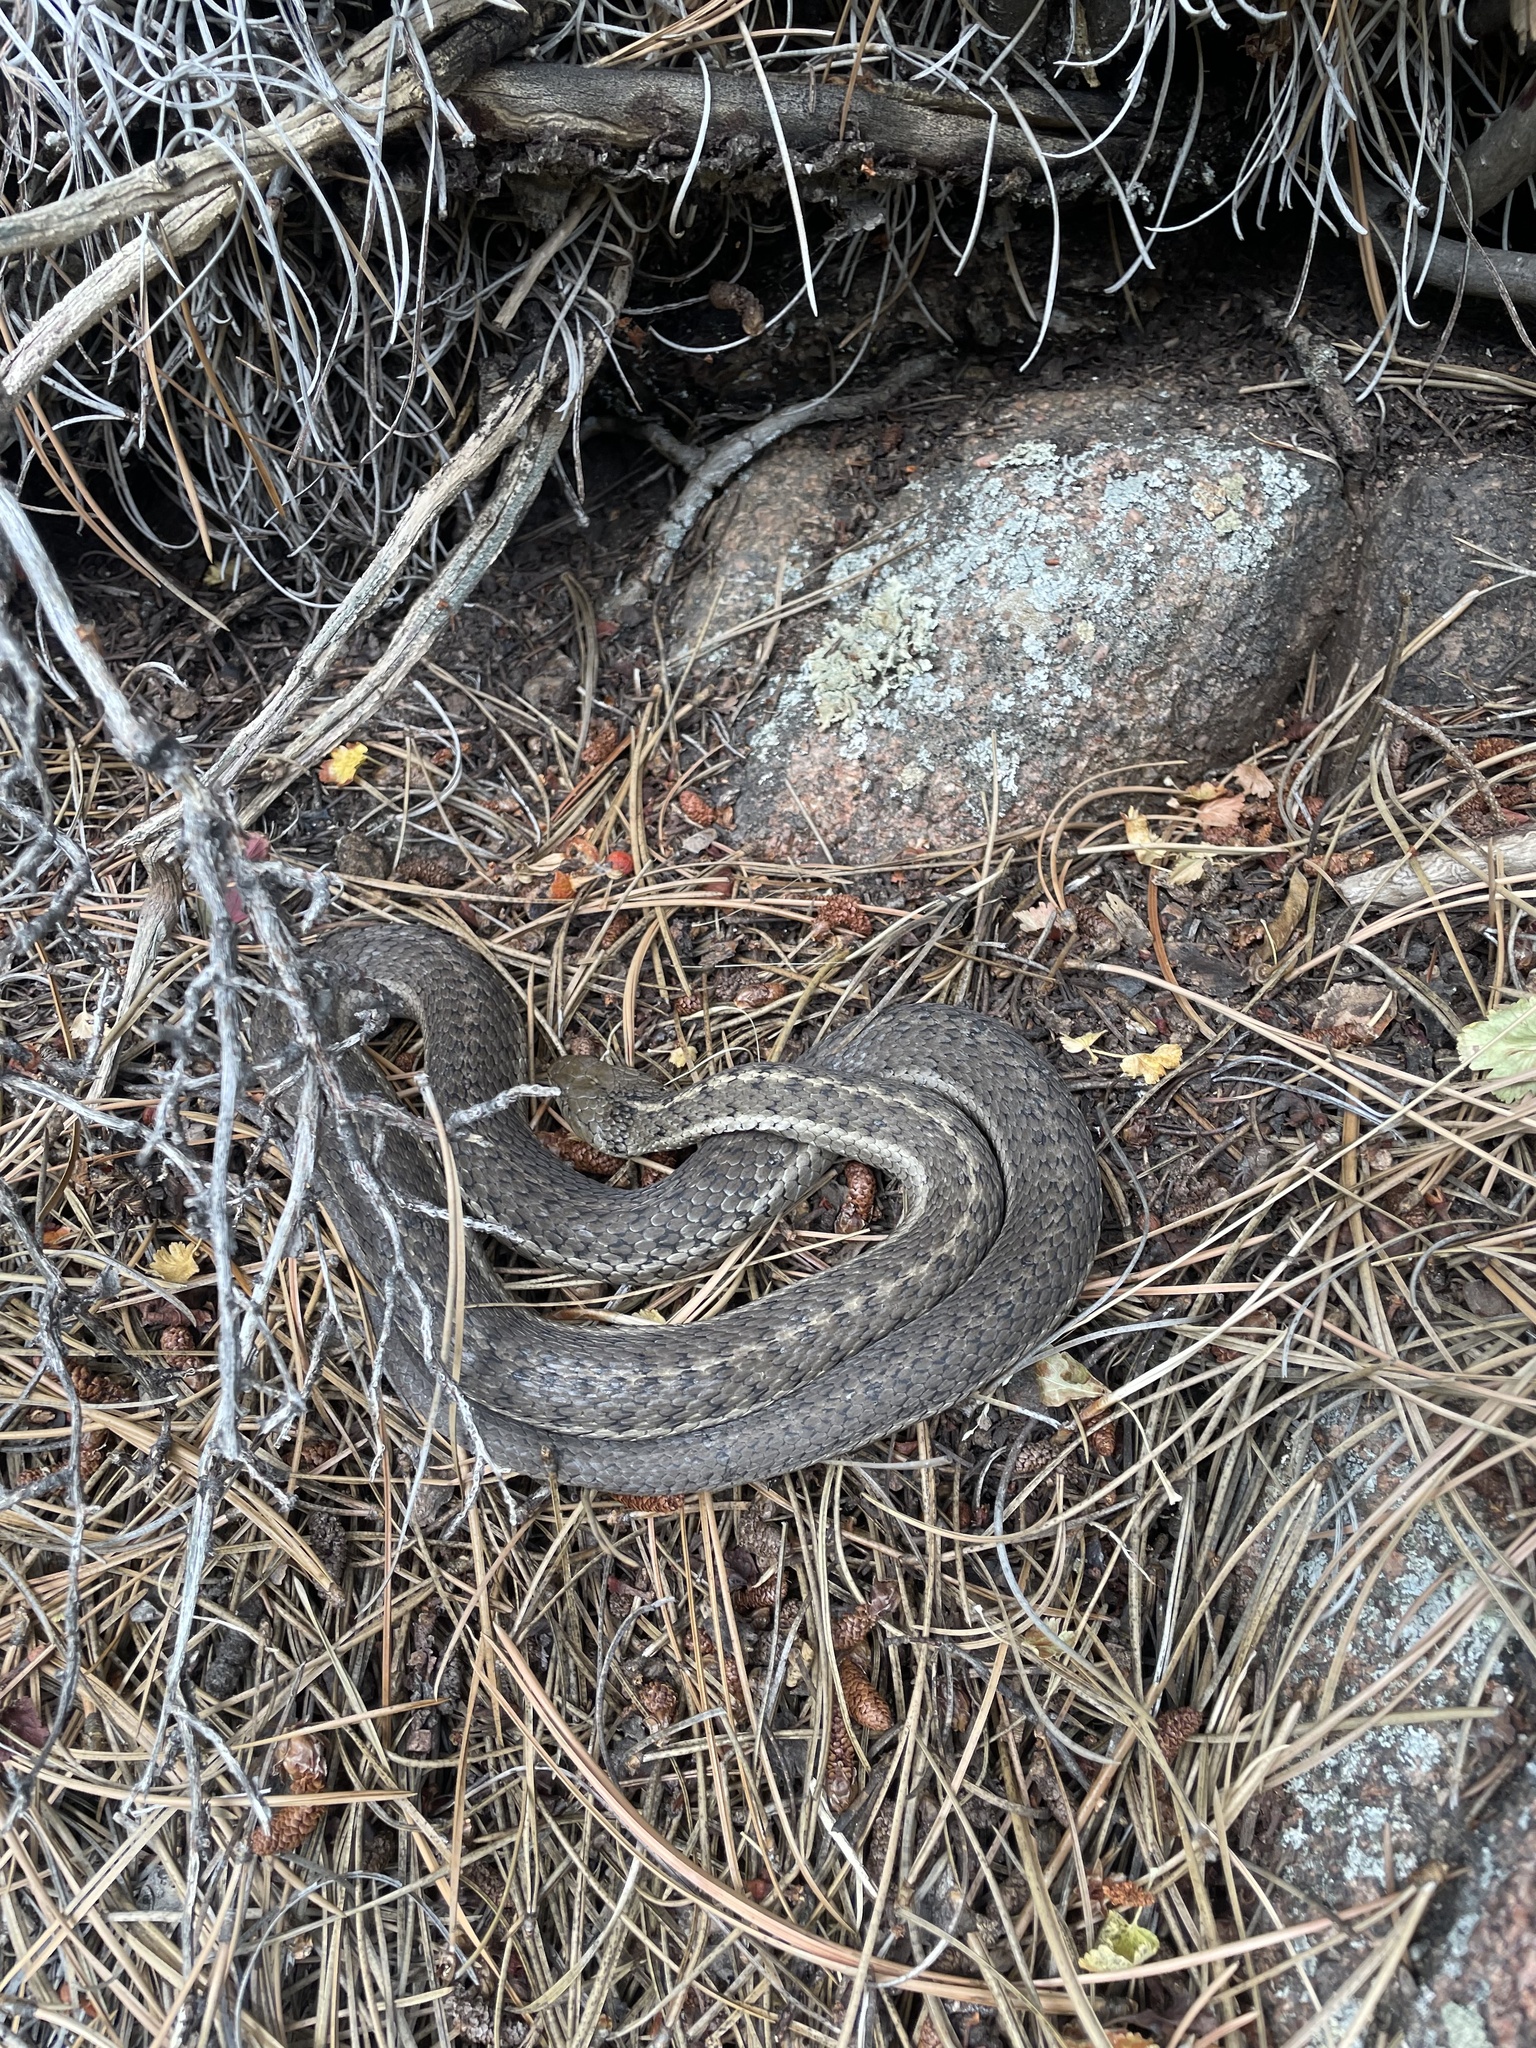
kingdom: Animalia
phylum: Chordata
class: Squamata
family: Colubridae
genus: Thamnophis
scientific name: Thamnophis elegans
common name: Western terrestrial garter snake
